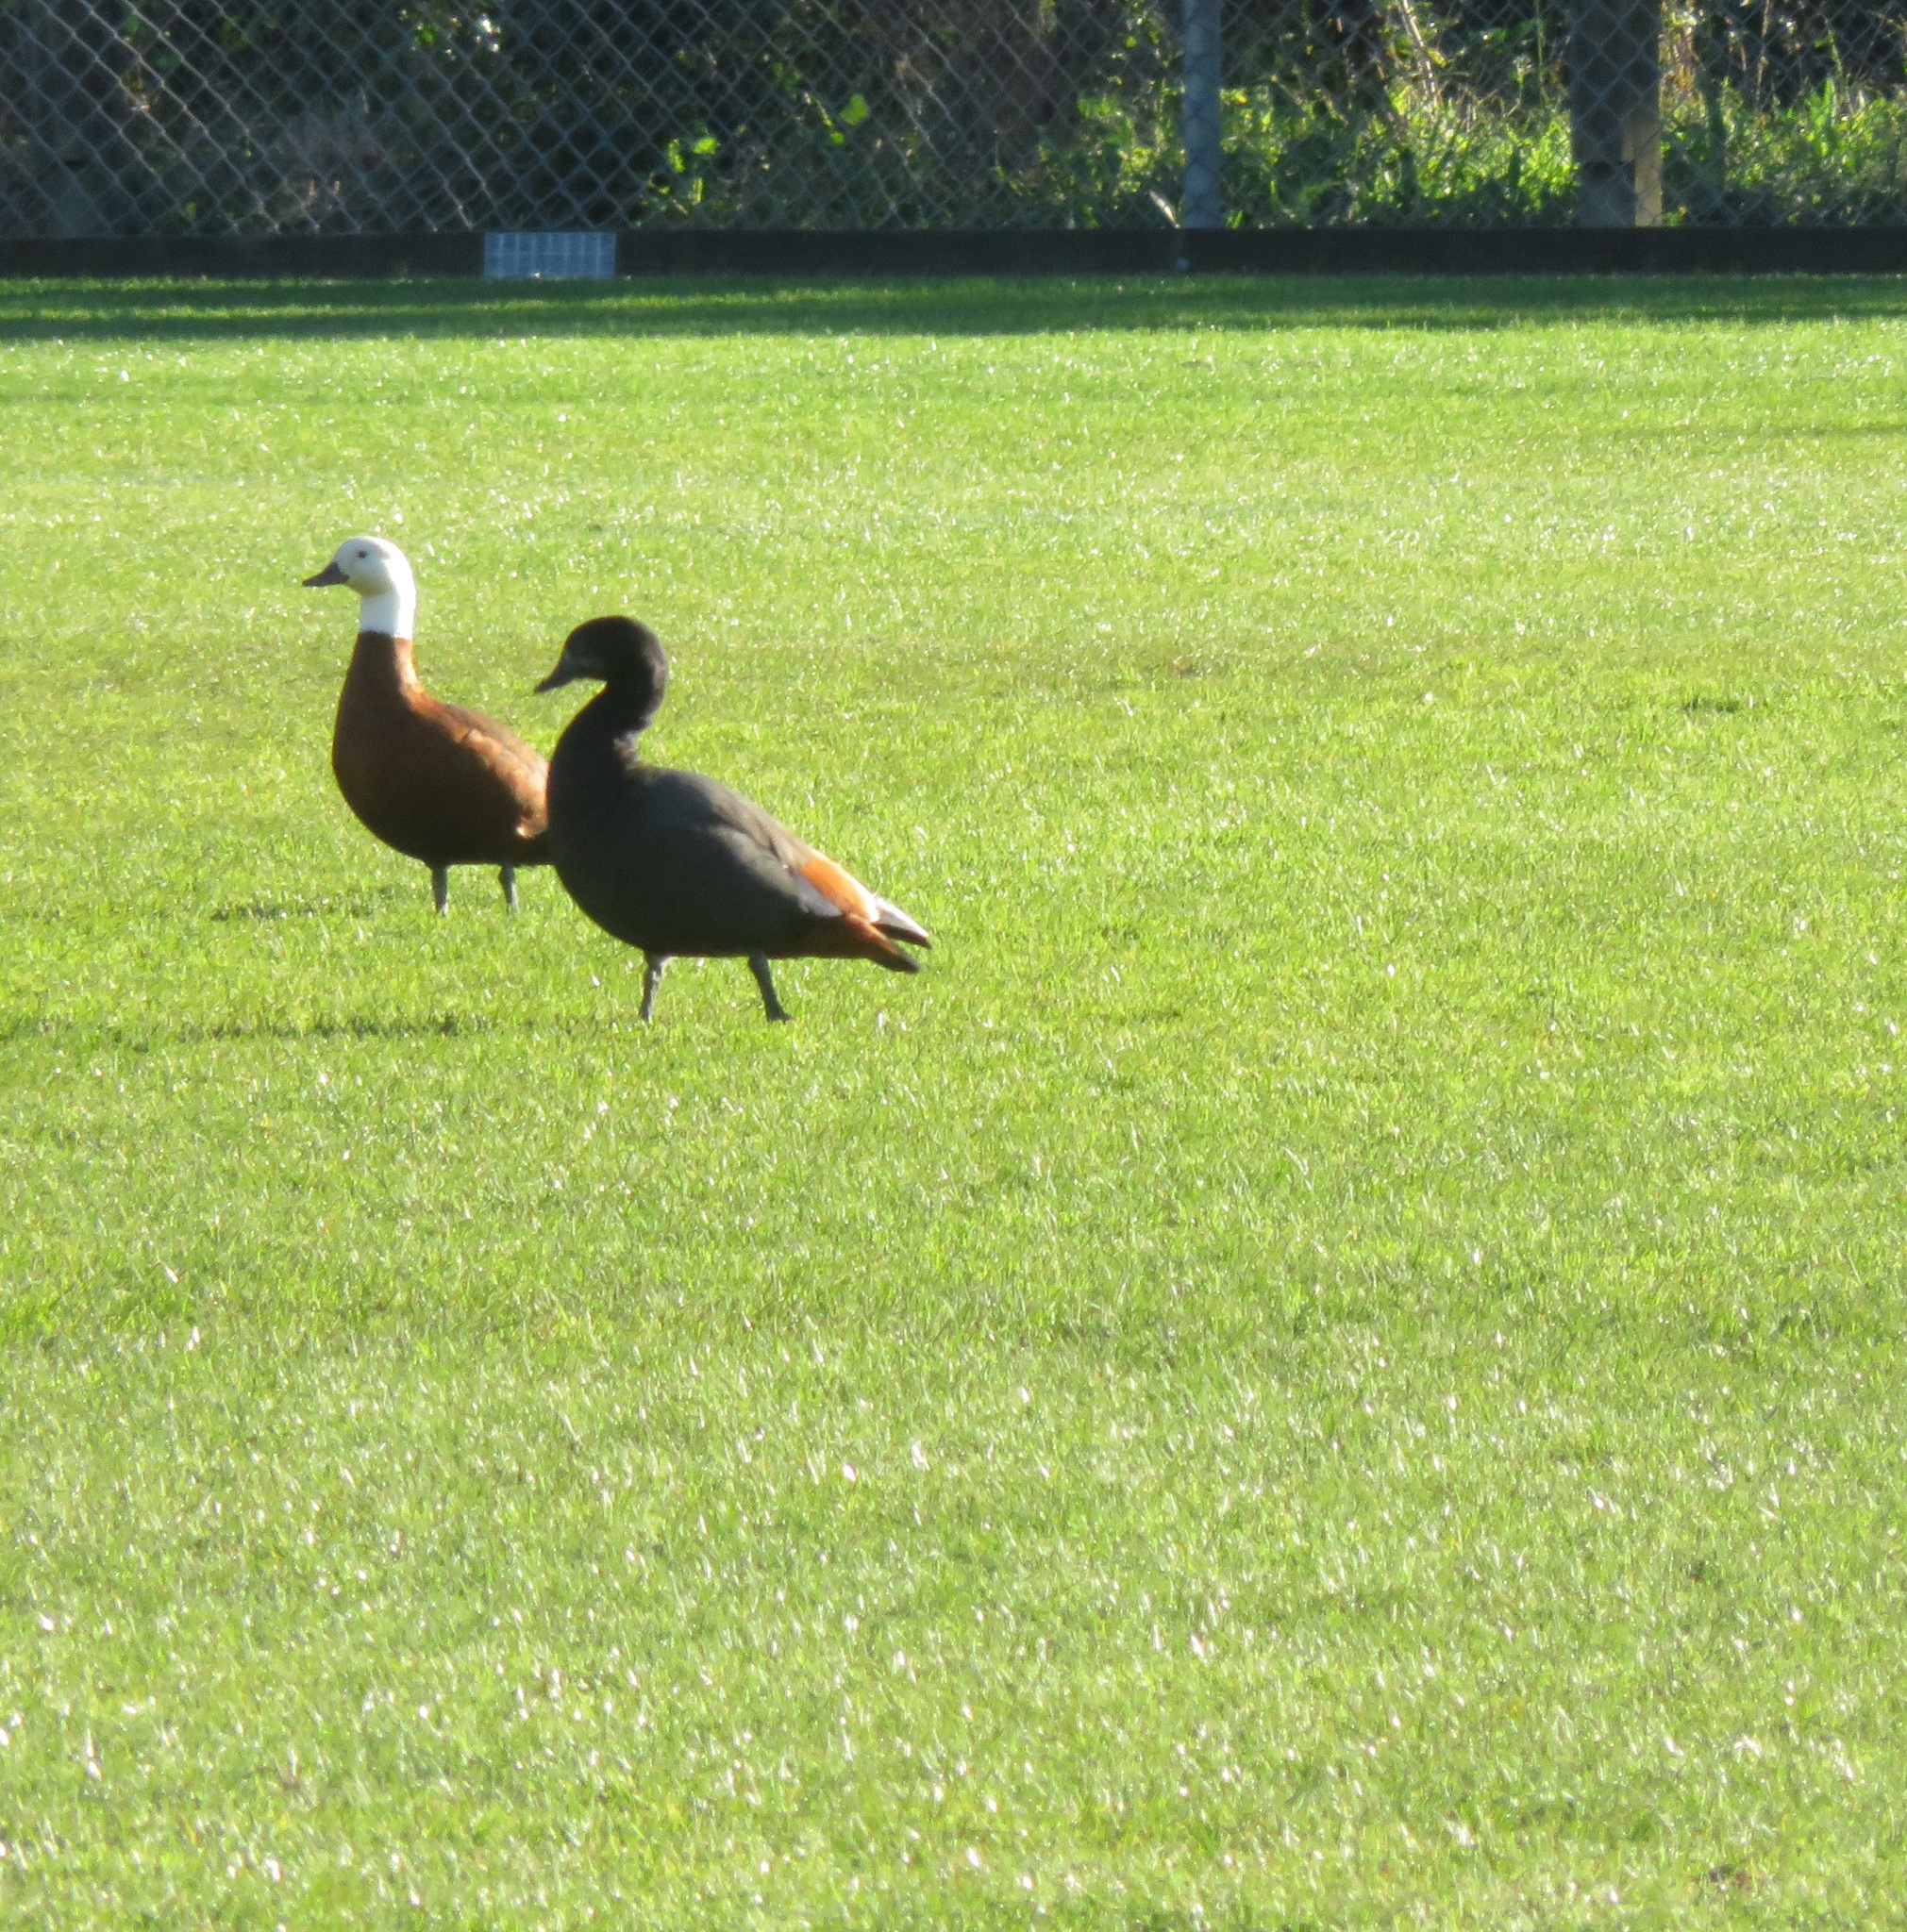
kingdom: Animalia
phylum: Chordata
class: Aves
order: Anseriformes
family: Anatidae
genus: Tadorna
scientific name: Tadorna variegata
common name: Paradise shelduck
